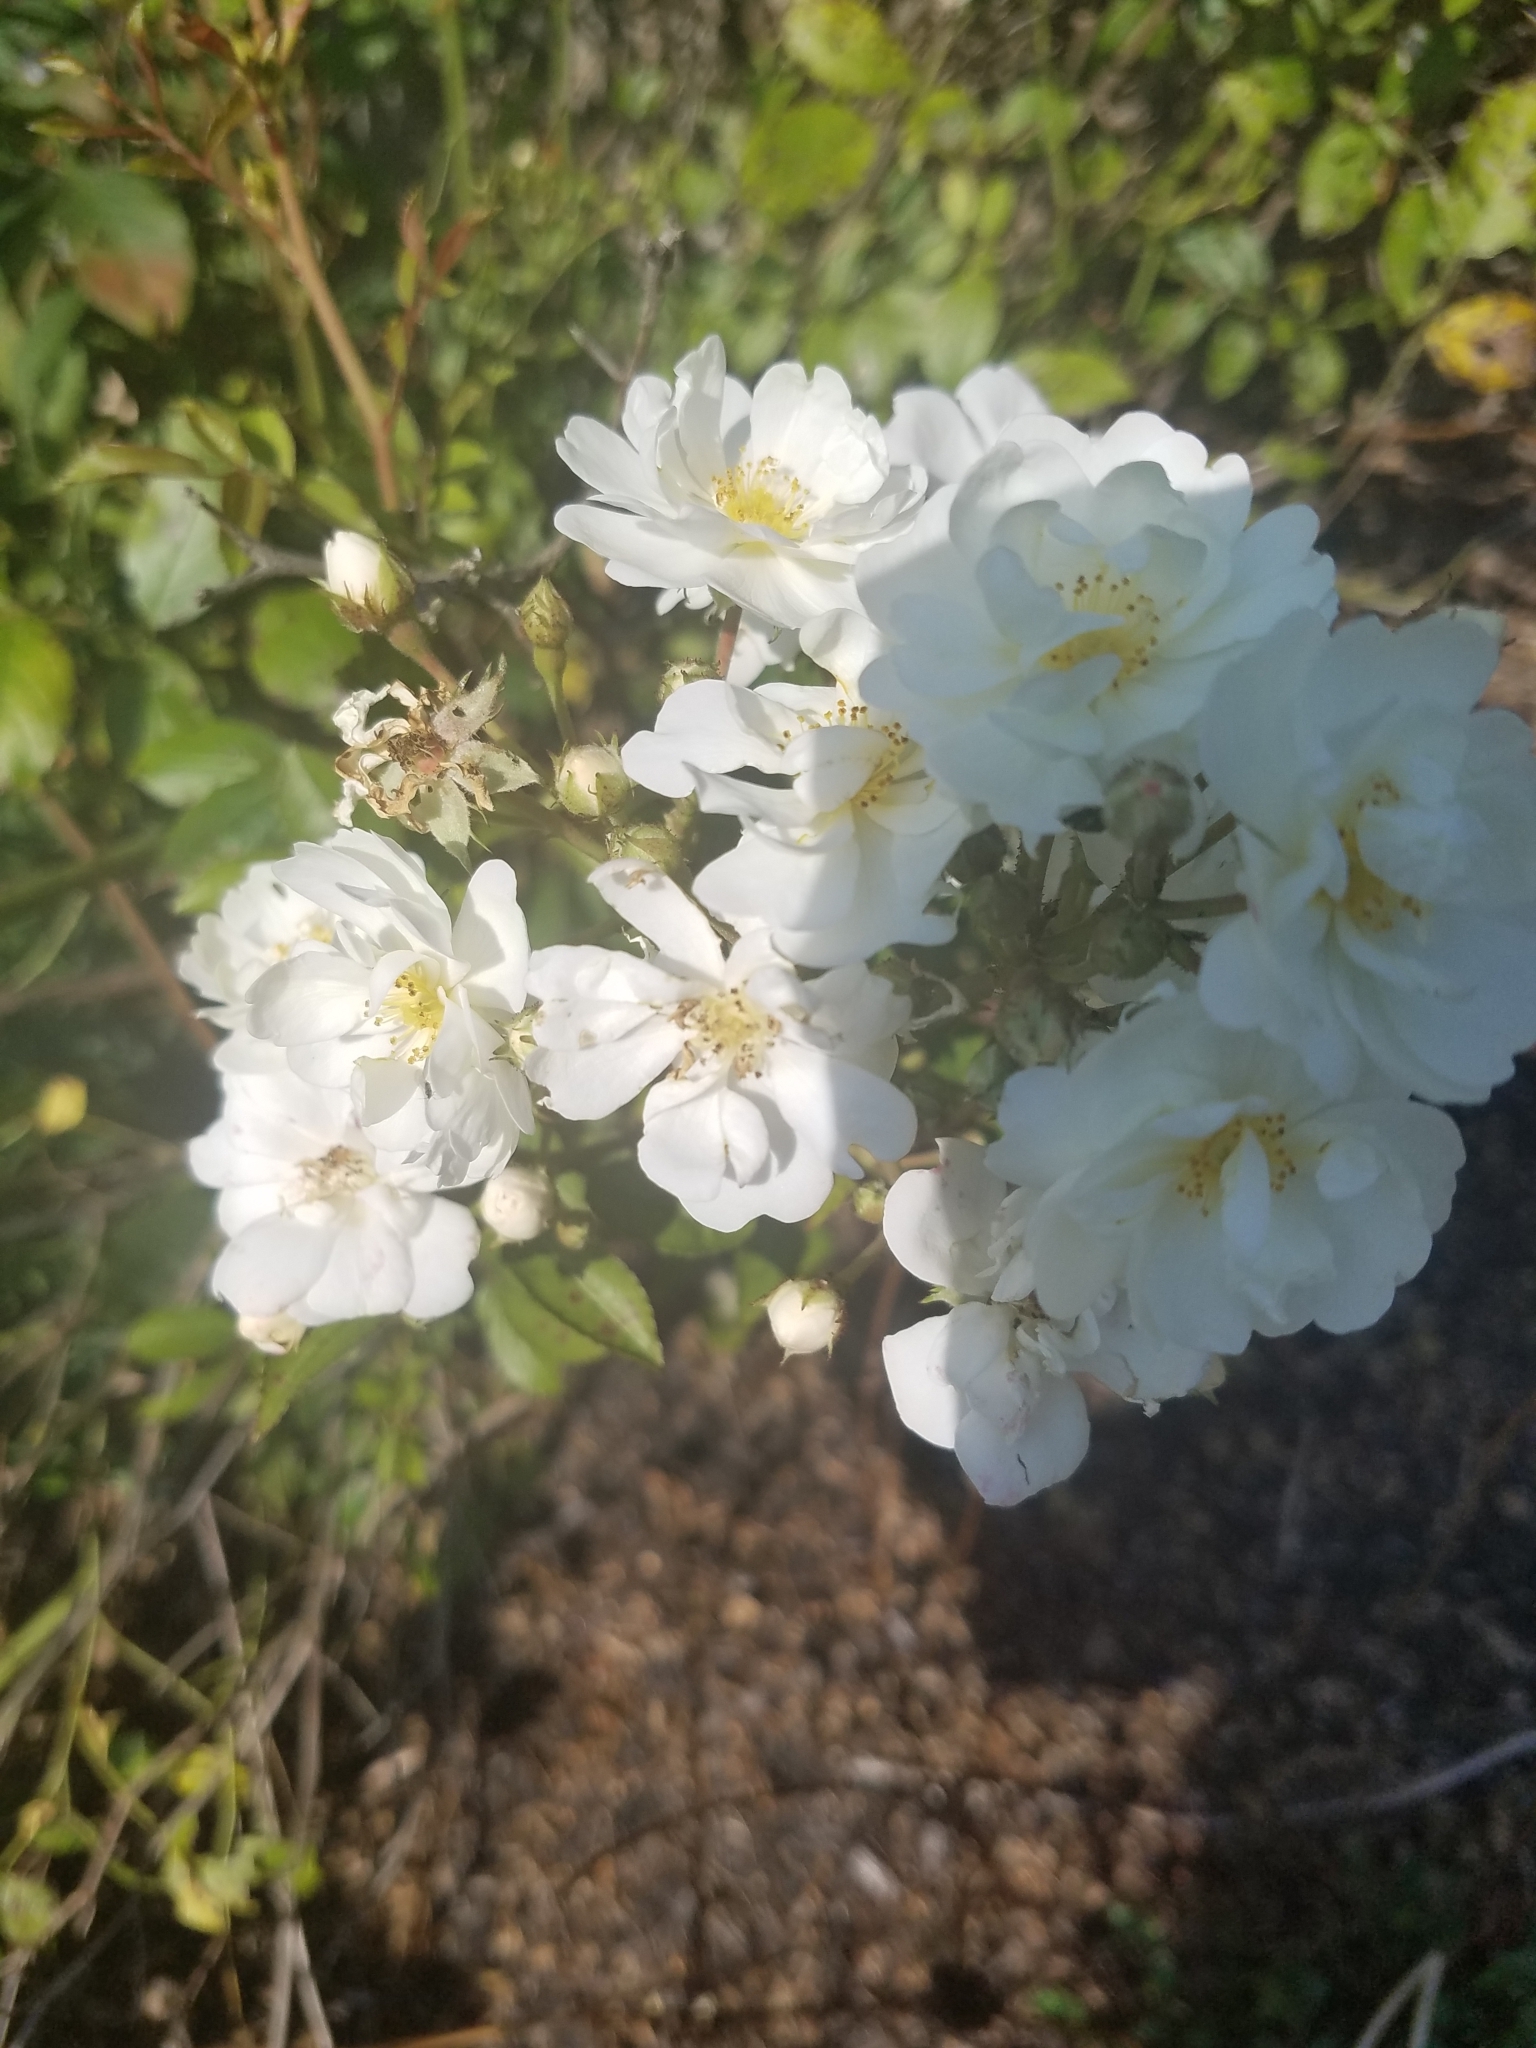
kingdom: Plantae
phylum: Tracheophyta
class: Magnoliopsida
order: Rosales
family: Rosaceae
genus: Rosa
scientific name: Rosa multiflora
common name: Multiflora rose
